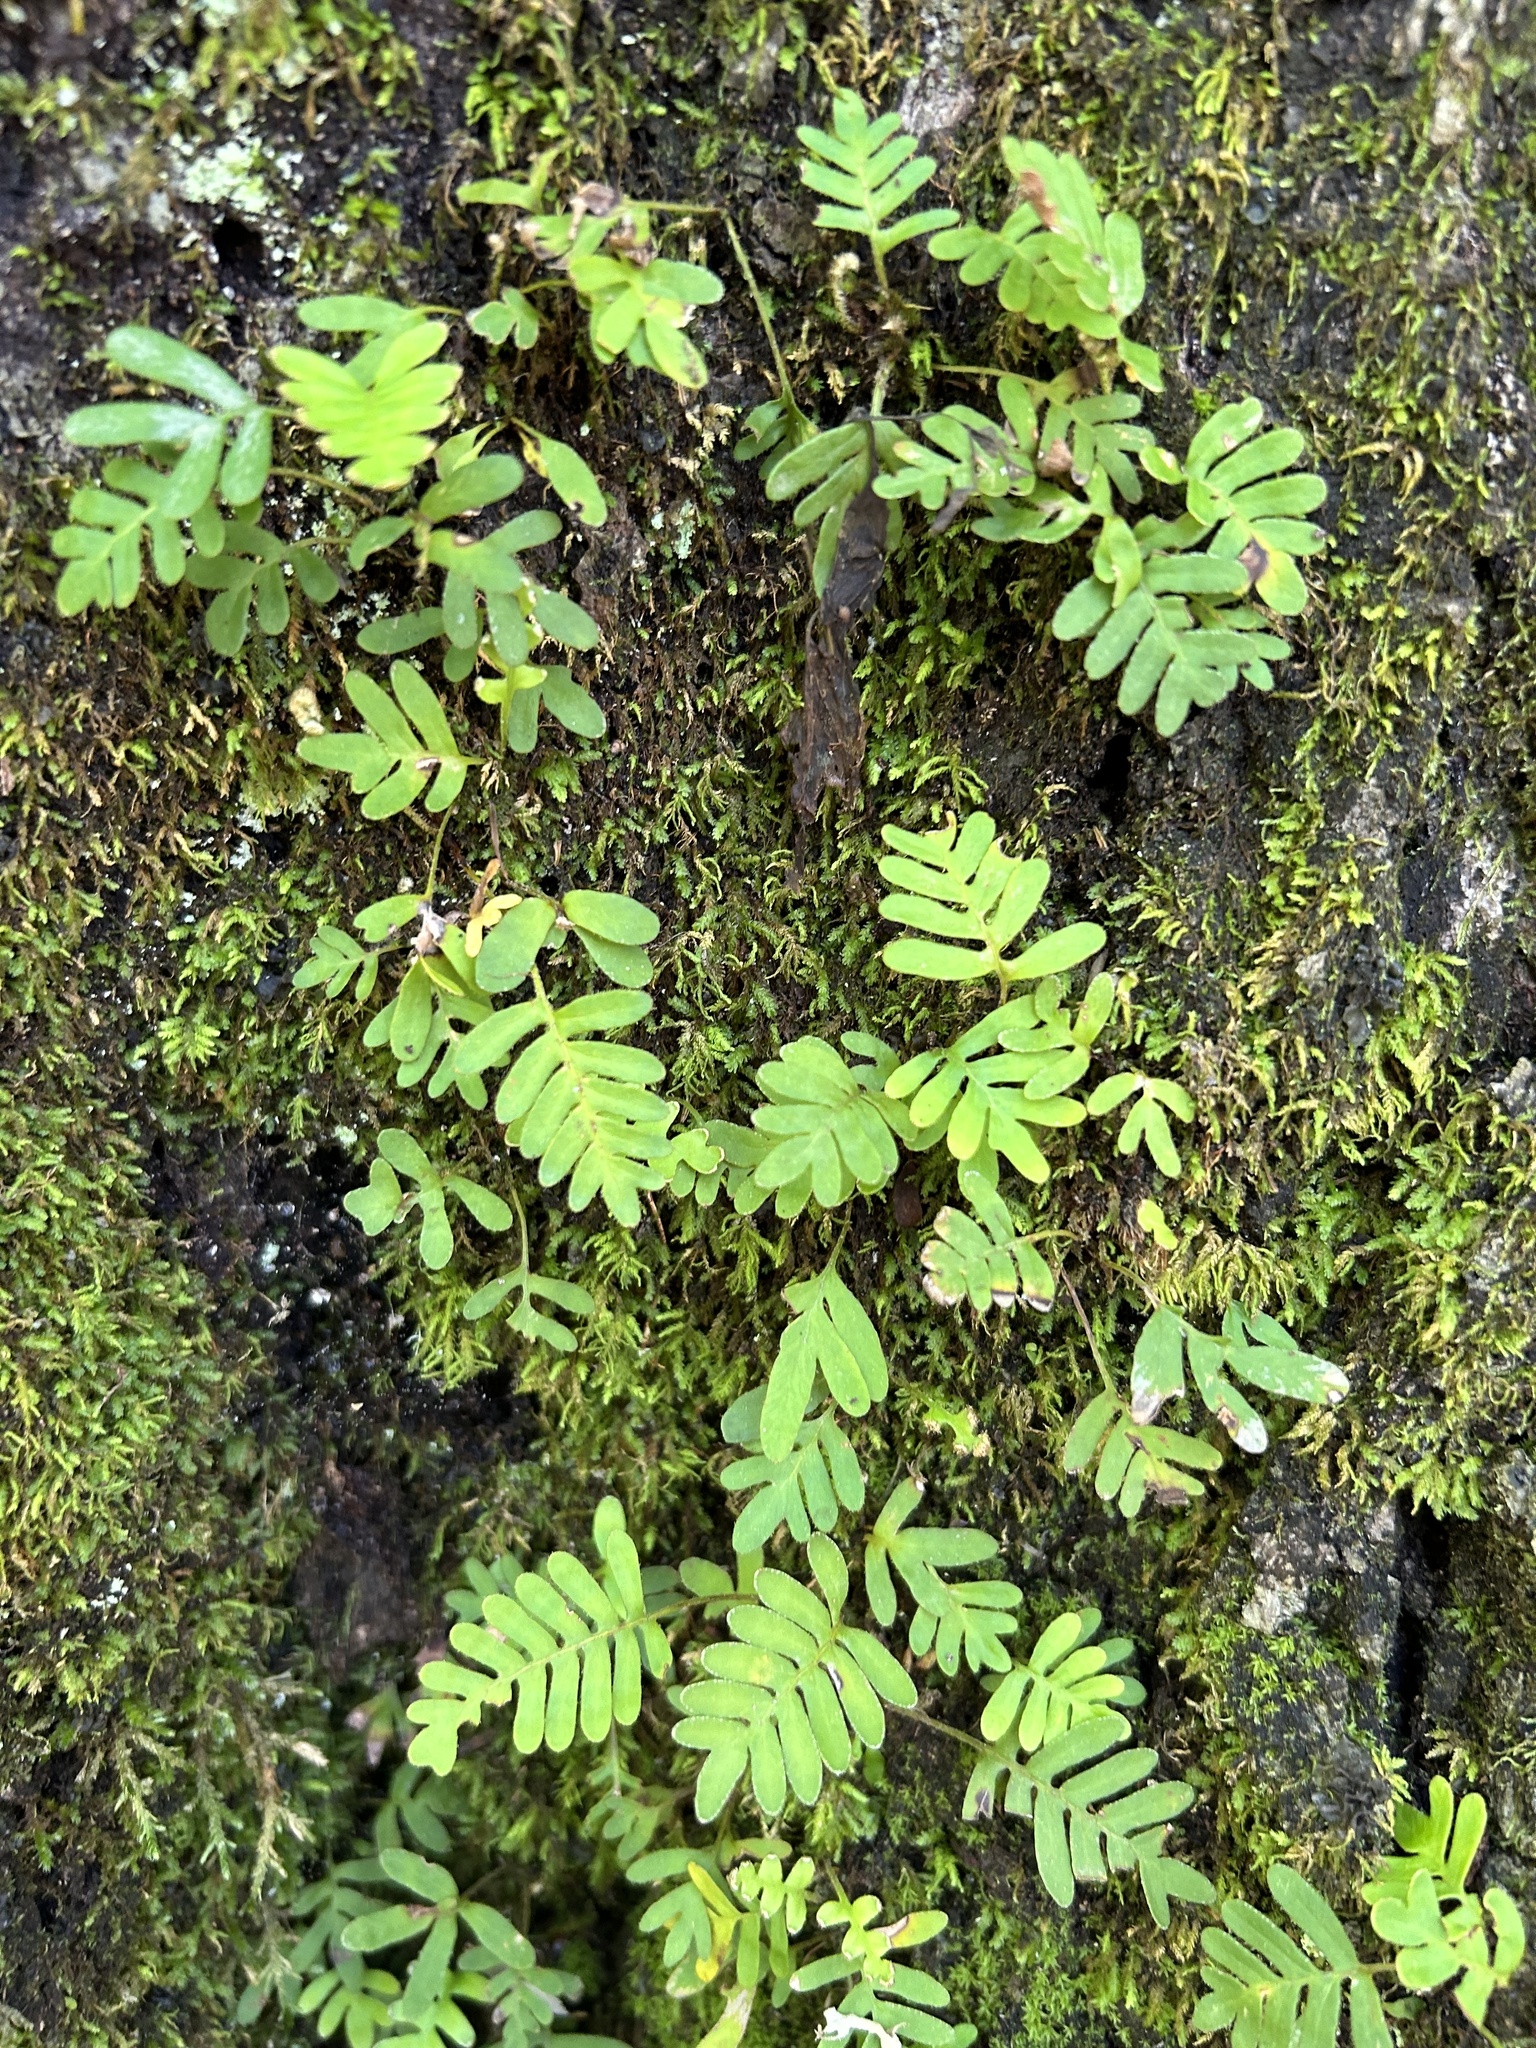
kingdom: Plantae
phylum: Tracheophyta
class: Polypodiopsida
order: Polypodiales
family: Polypodiaceae
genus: Pleopeltis
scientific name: Pleopeltis michauxiana
